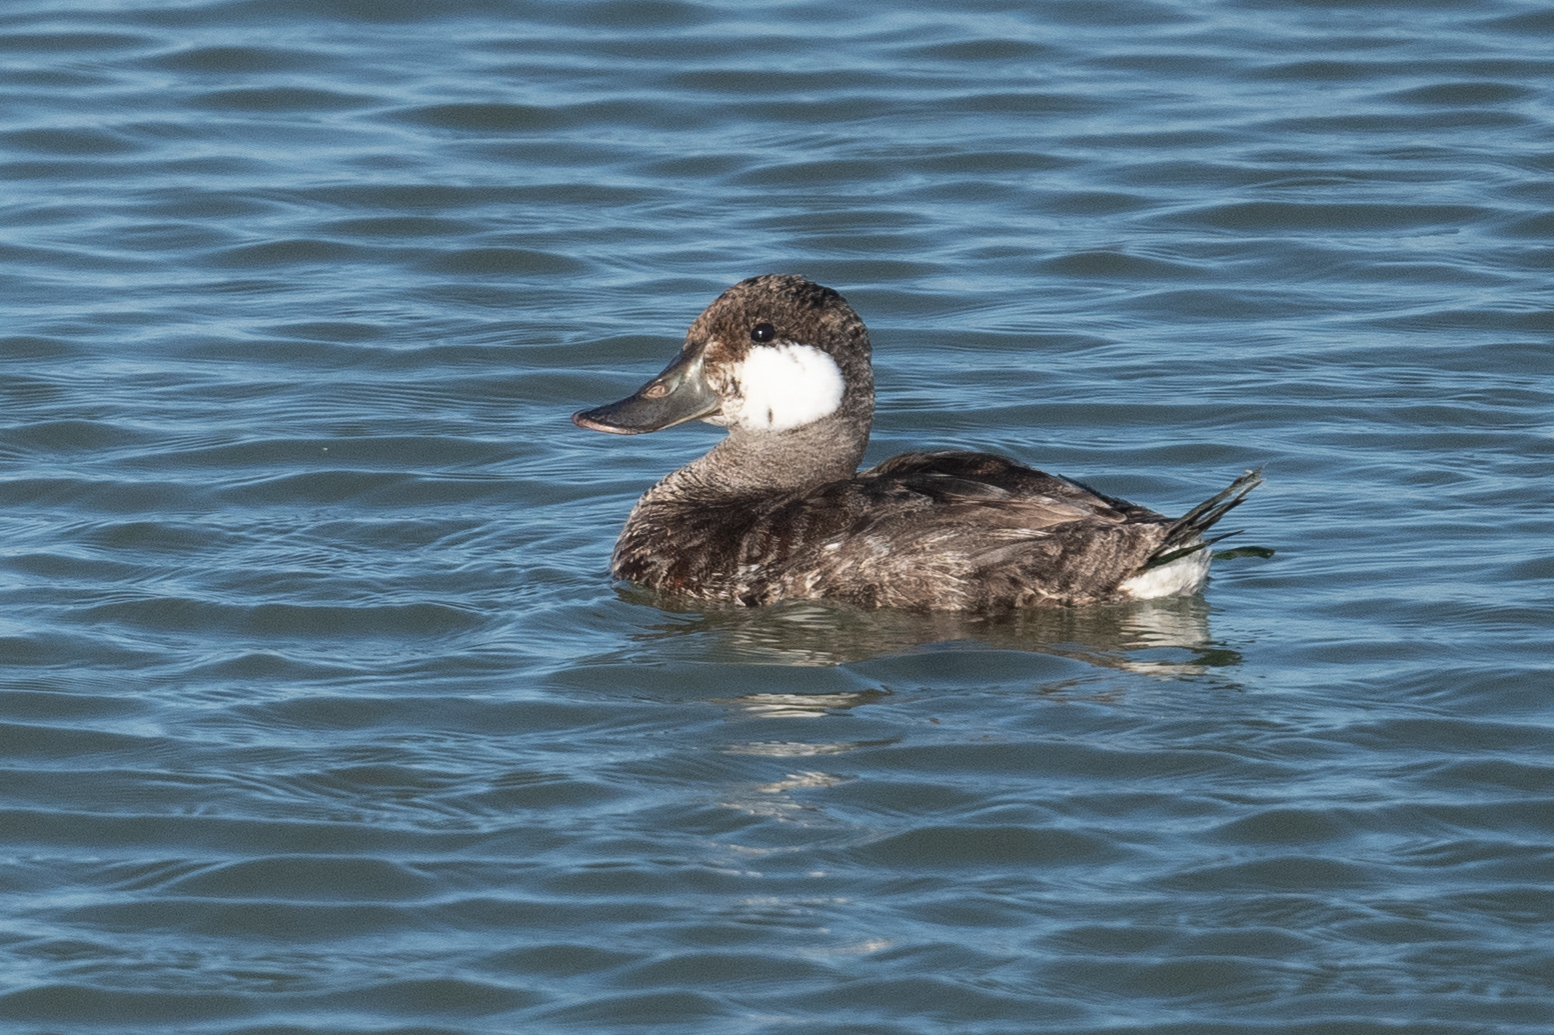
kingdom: Animalia
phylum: Chordata
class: Aves
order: Anseriformes
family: Anatidae
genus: Oxyura
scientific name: Oxyura jamaicensis
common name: Ruddy duck
